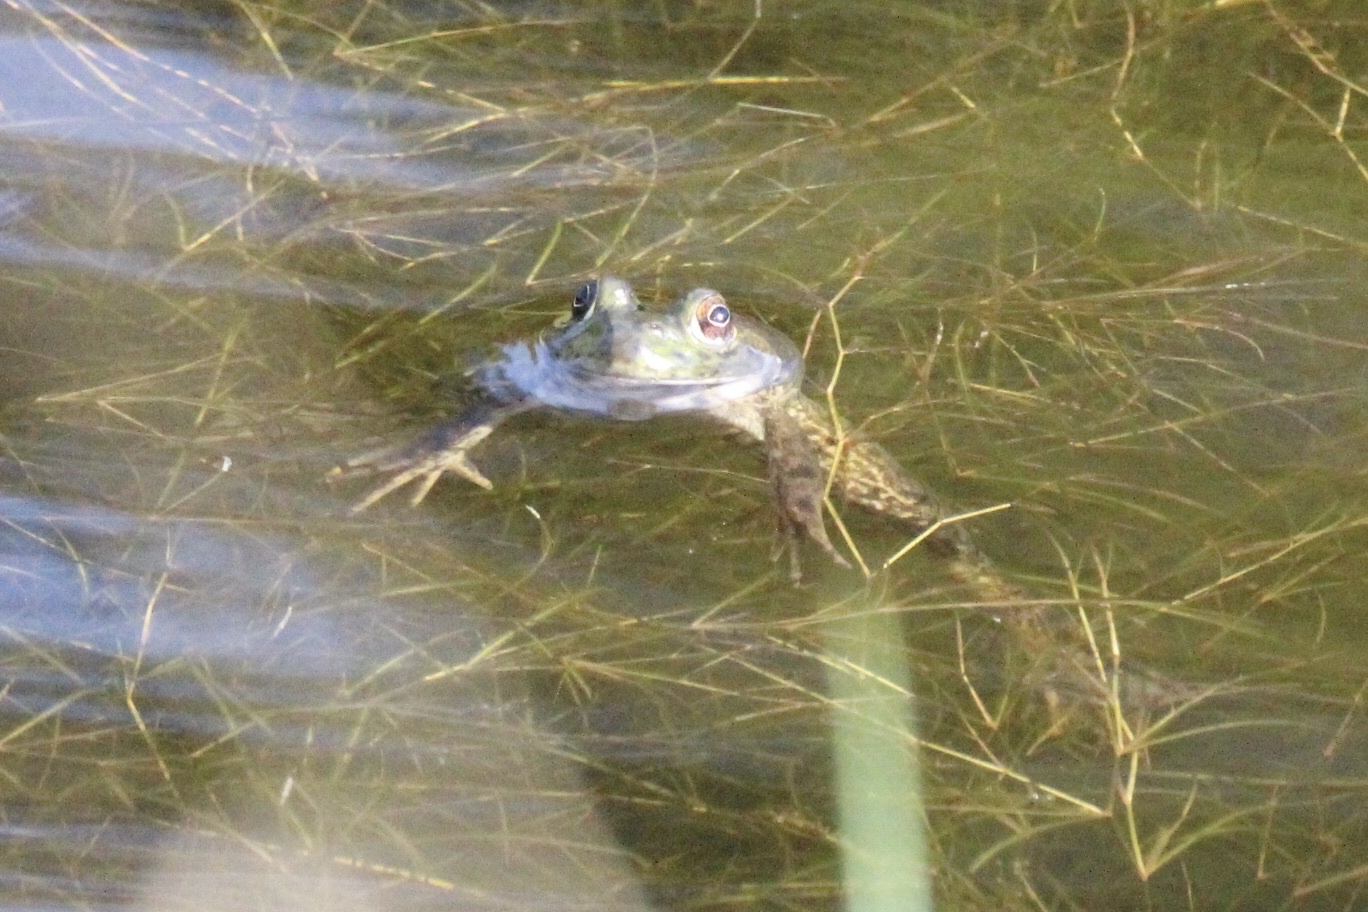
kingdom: Animalia
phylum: Chordata
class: Amphibia
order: Anura
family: Ranidae
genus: Lithobates
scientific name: Lithobates catesbeianus
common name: American bullfrog
